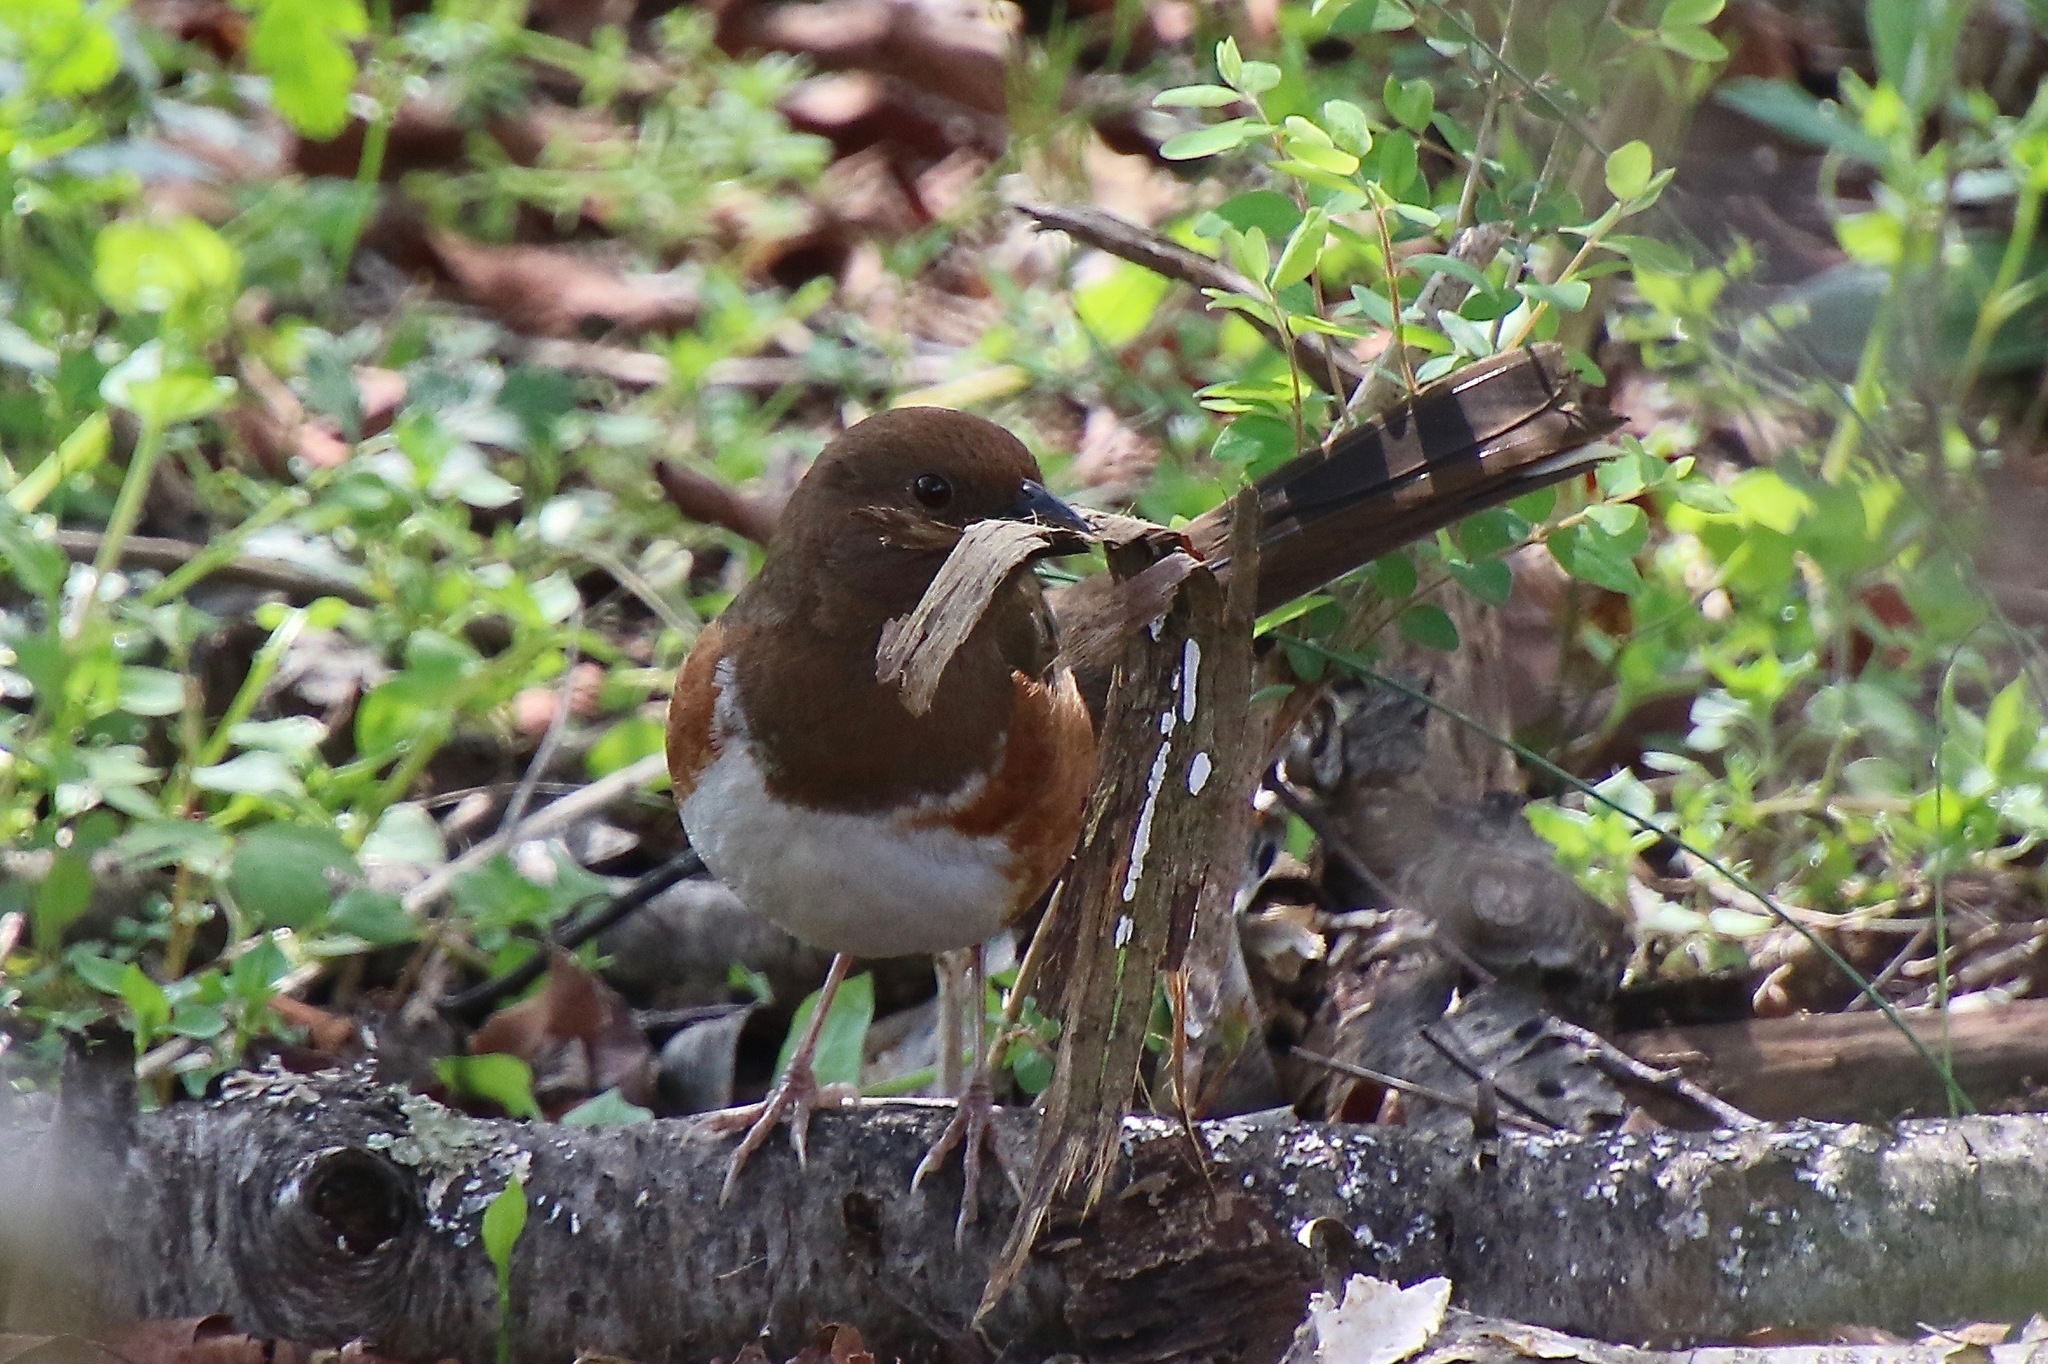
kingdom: Animalia
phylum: Chordata
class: Aves
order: Passeriformes
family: Passerellidae
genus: Pipilo
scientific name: Pipilo erythrophthalmus
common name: Eastern towhee
